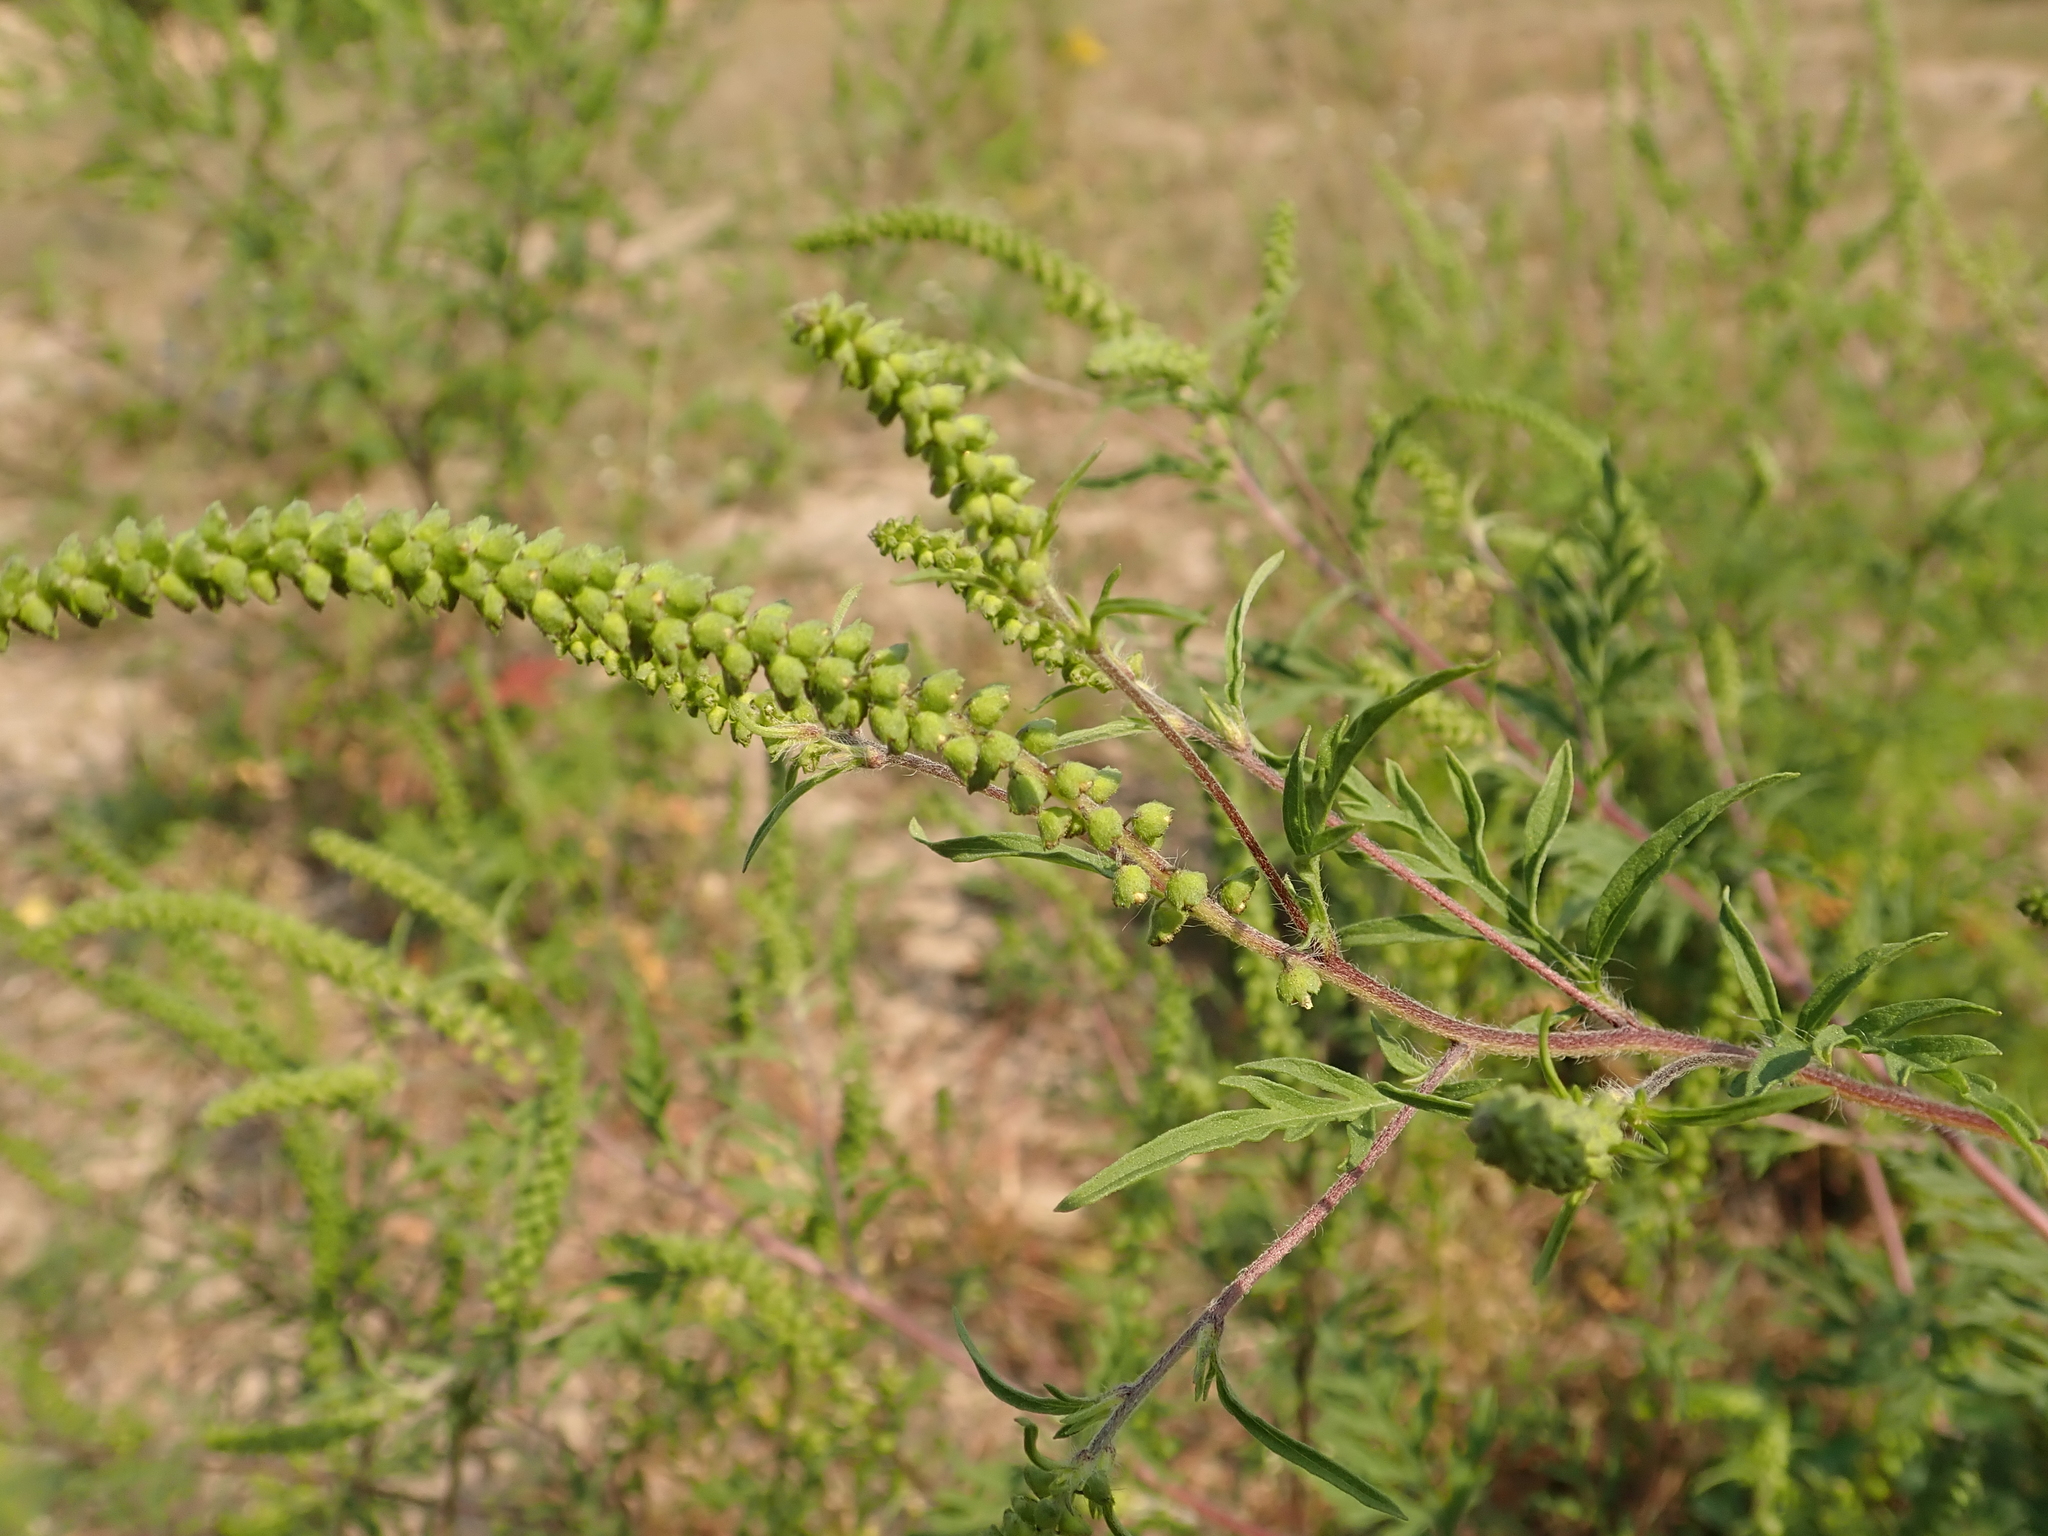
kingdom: Plantae
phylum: Tracheophyta
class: Magnoliopsida
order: Asterales
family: Asteraceae
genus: Ambrosia
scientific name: Ambrosia artemisiifolia
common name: Annual ragweed
